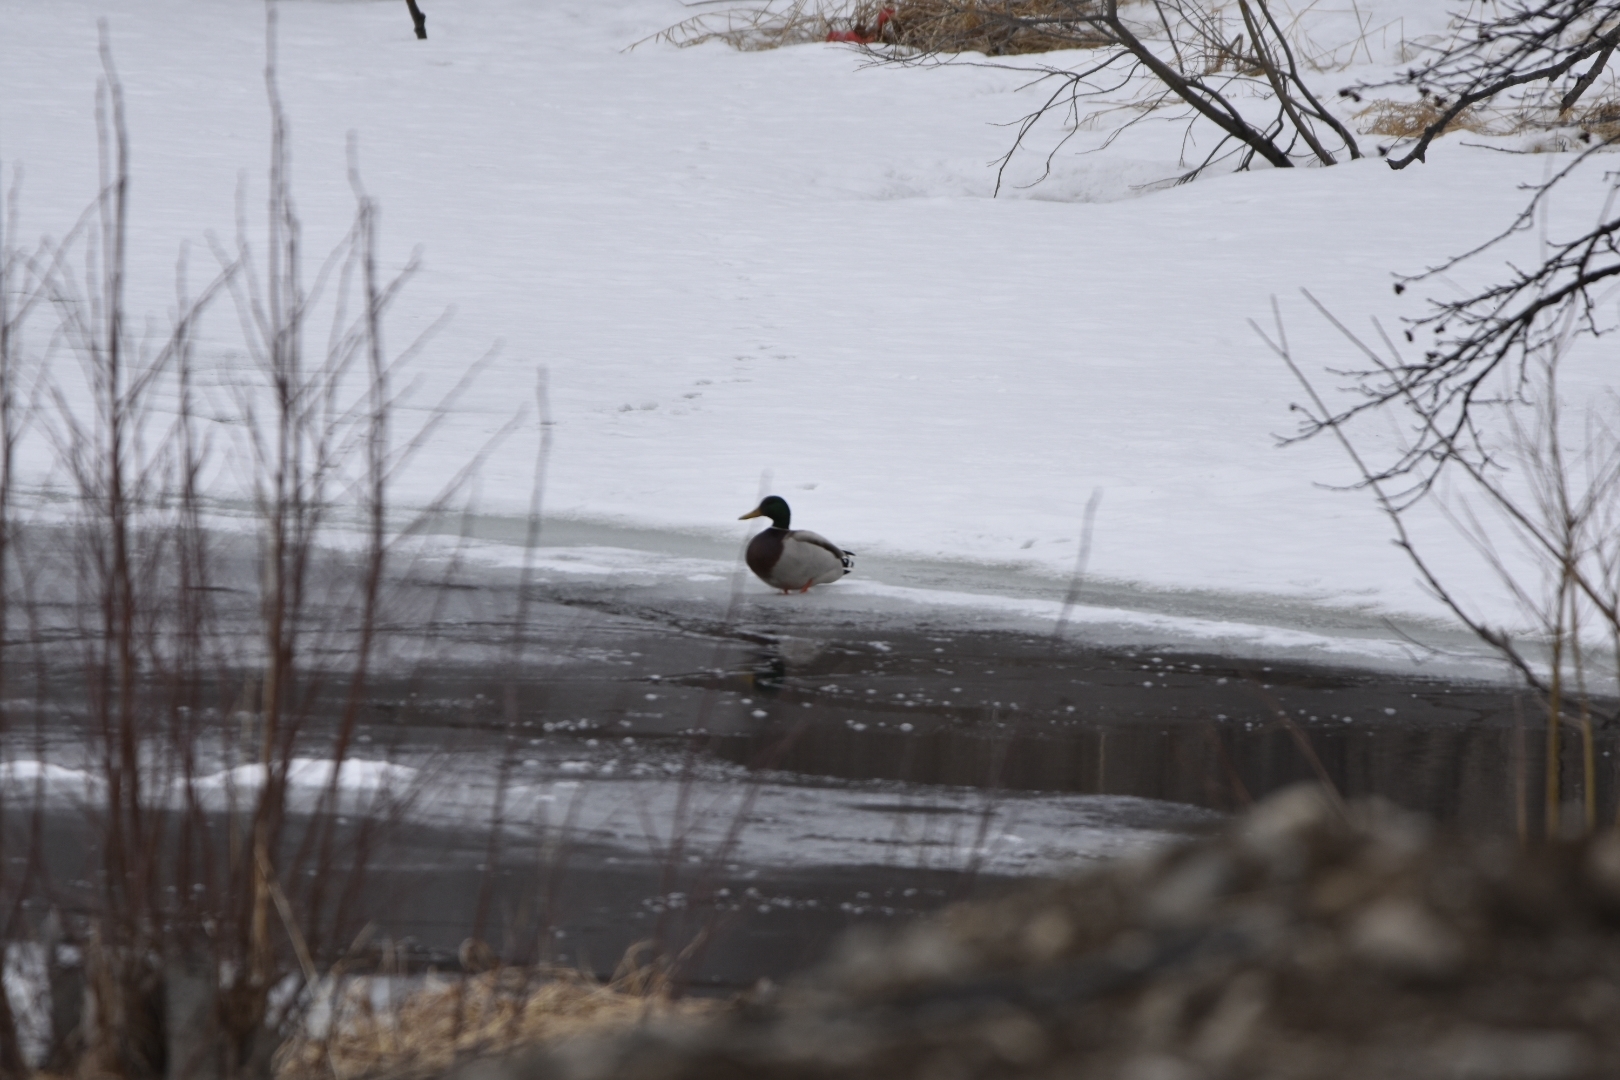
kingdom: Animalia
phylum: Chordata
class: Aves
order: Anseriformes
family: Anatidae
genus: Anas
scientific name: Anas platyrhynchos
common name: Mallard
